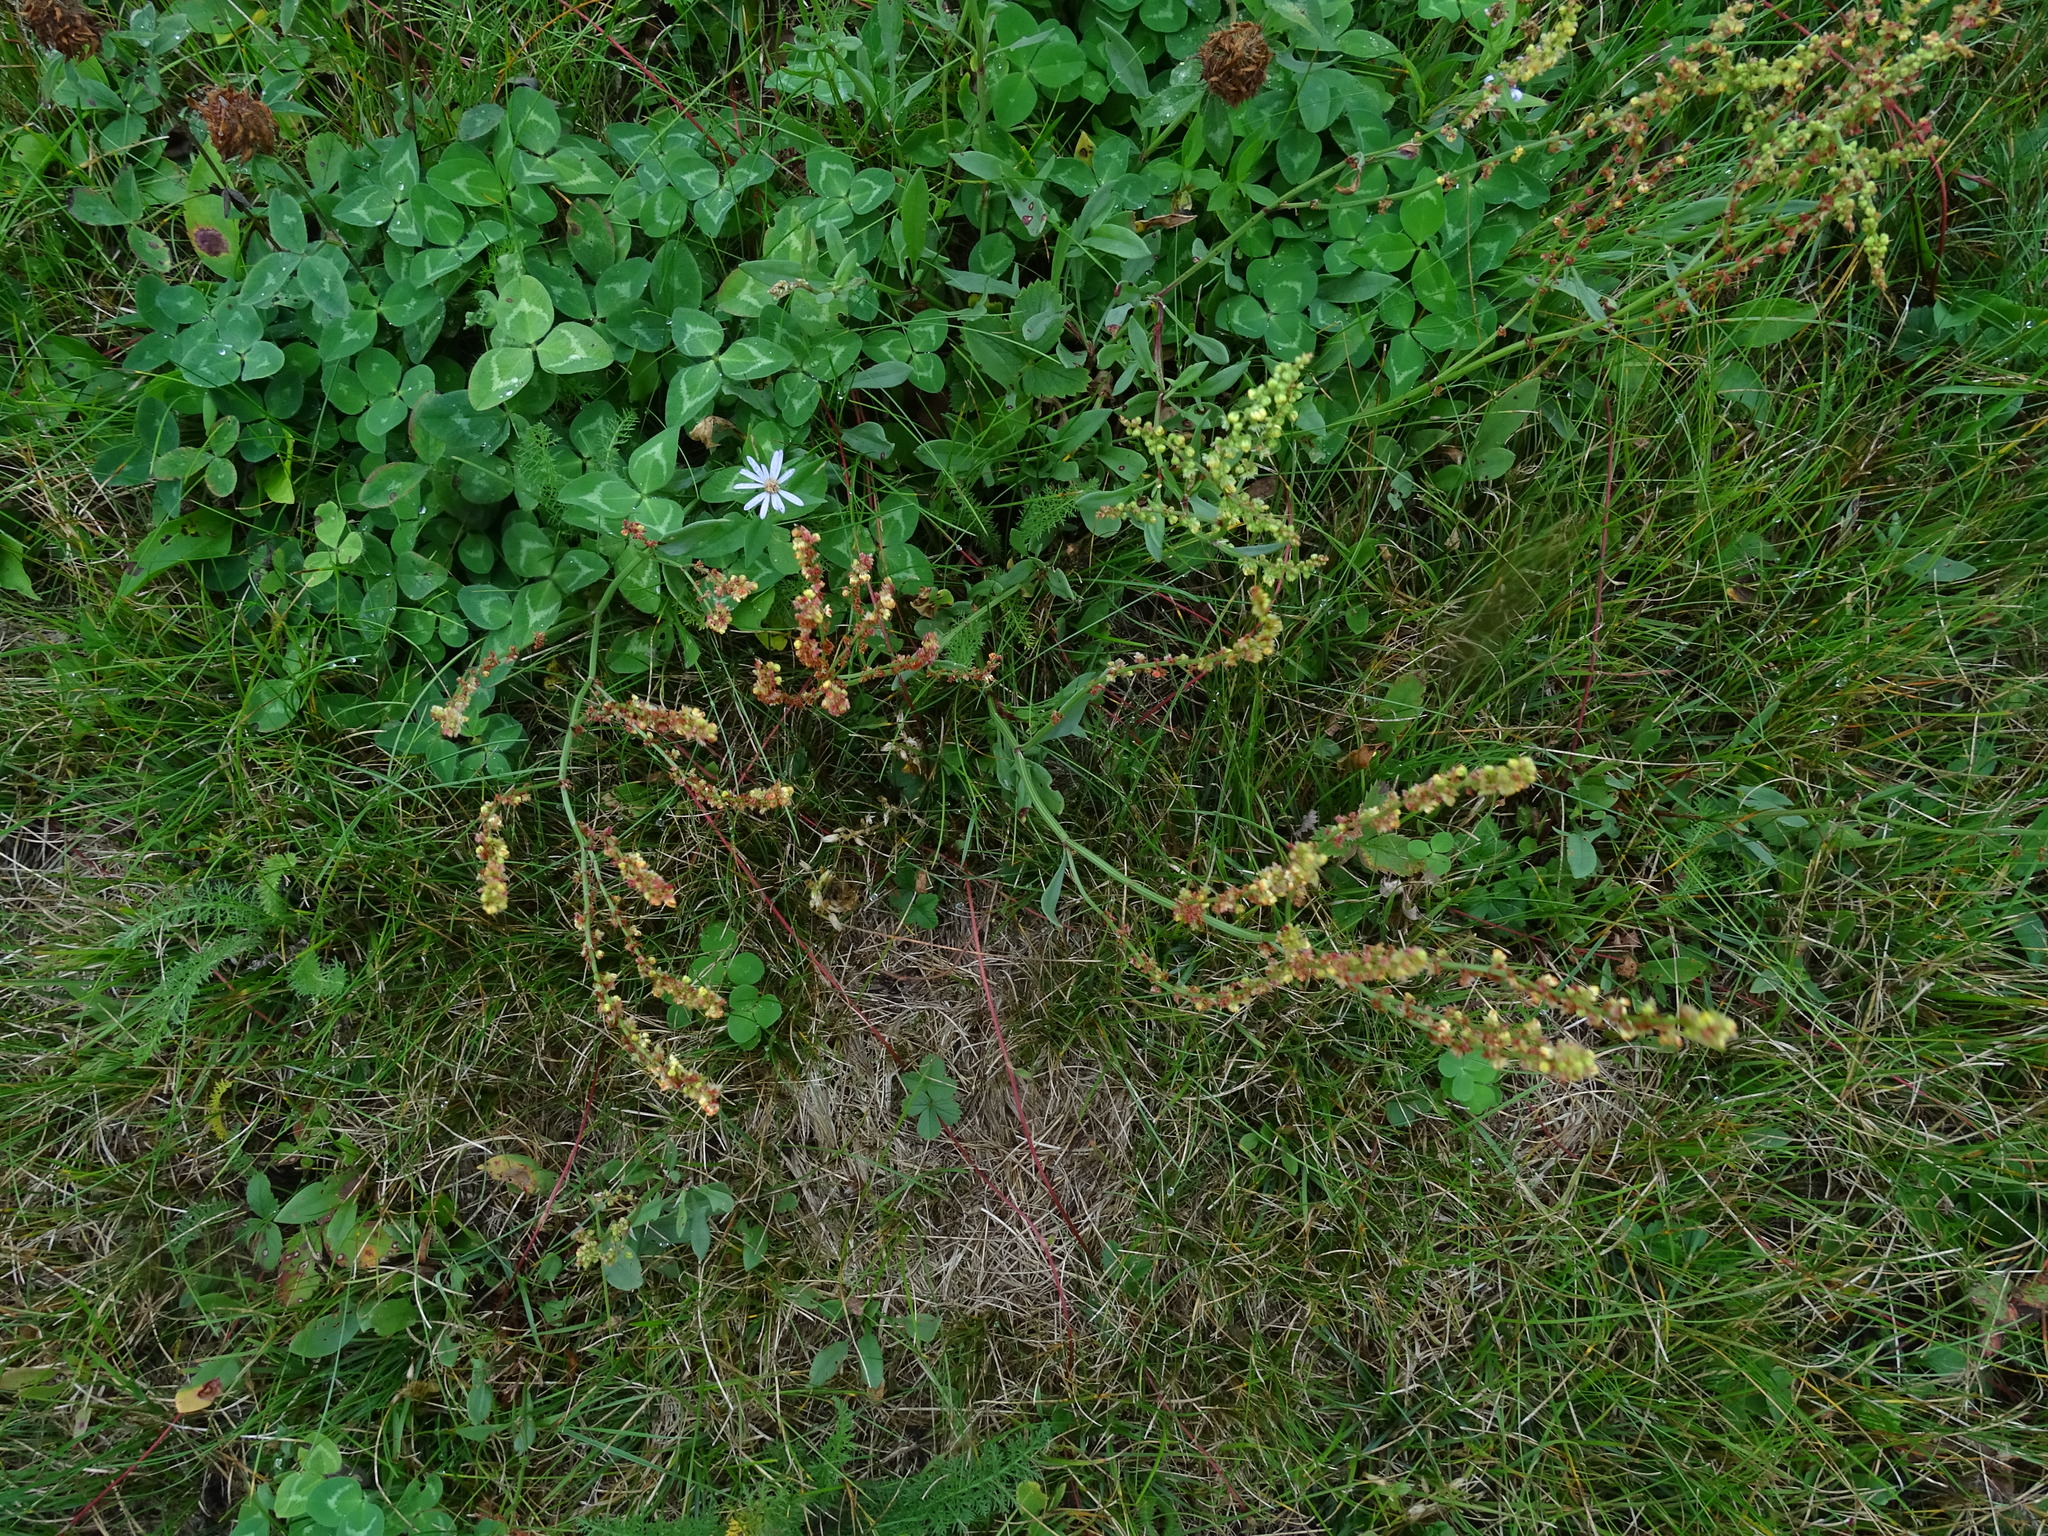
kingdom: Plantae
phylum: Tracheophyta
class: Magnoliopsida
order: Caryophyllales
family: Polygonaceae
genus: Rumex
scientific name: Rumex acetosella
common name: Common sheep sorrel
